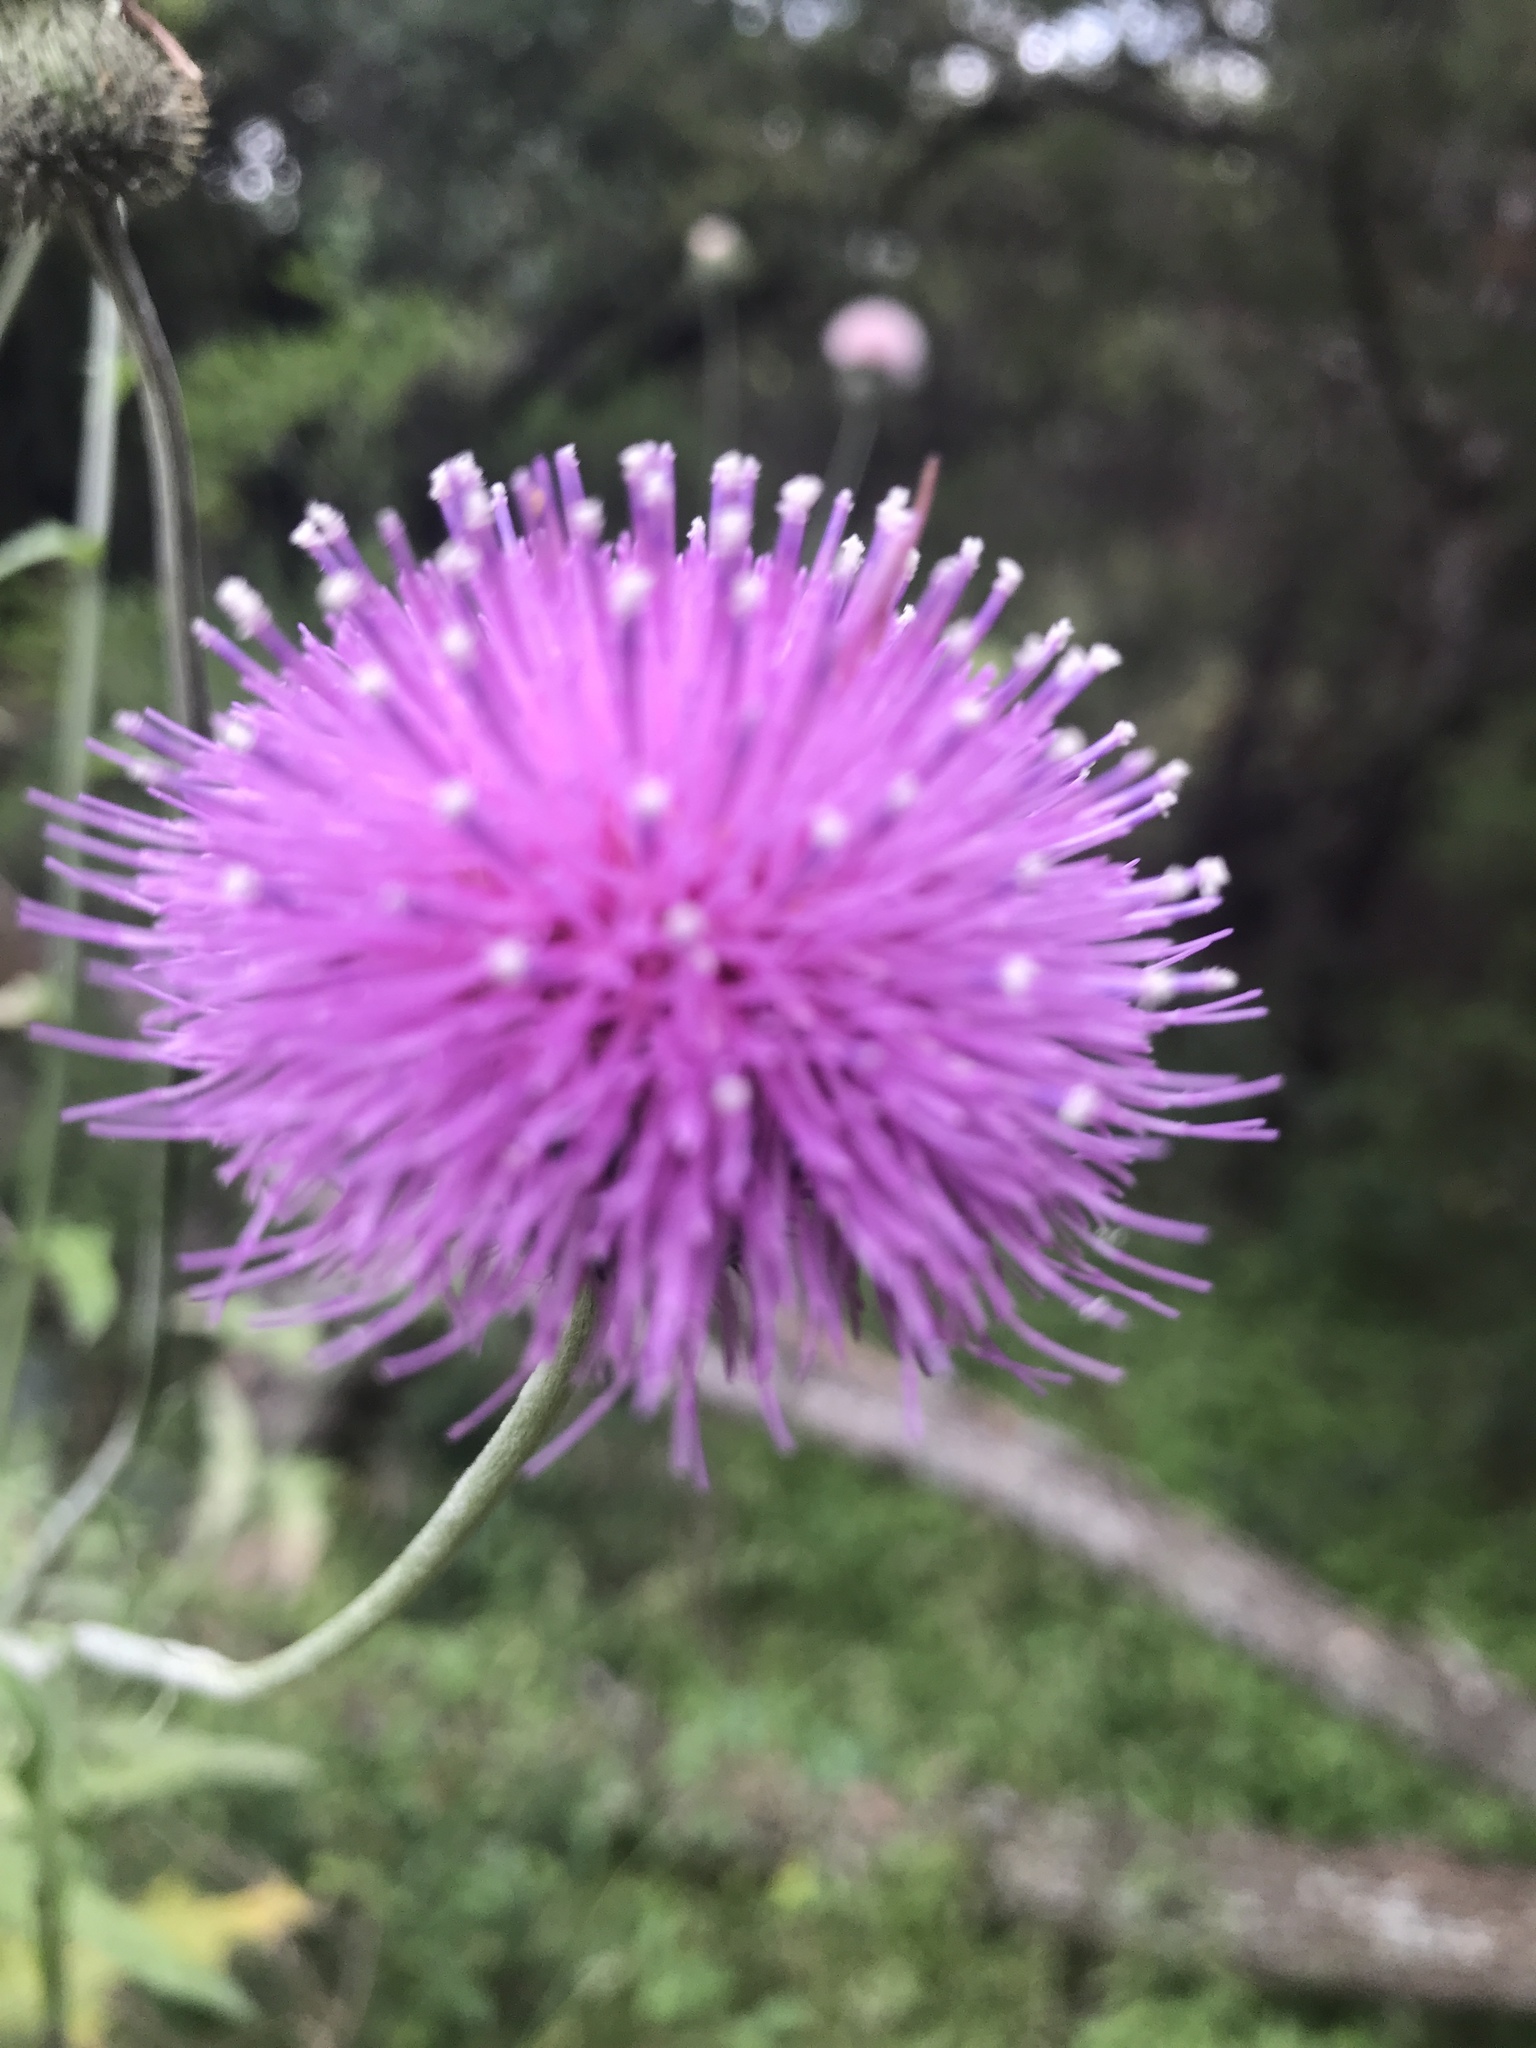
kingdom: Plantae
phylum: Tracheophyta
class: Magnoliopsida
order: Asterales
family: Asteraceae
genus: Cirsium
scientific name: Cirsium texanum
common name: Texas purple thistle
